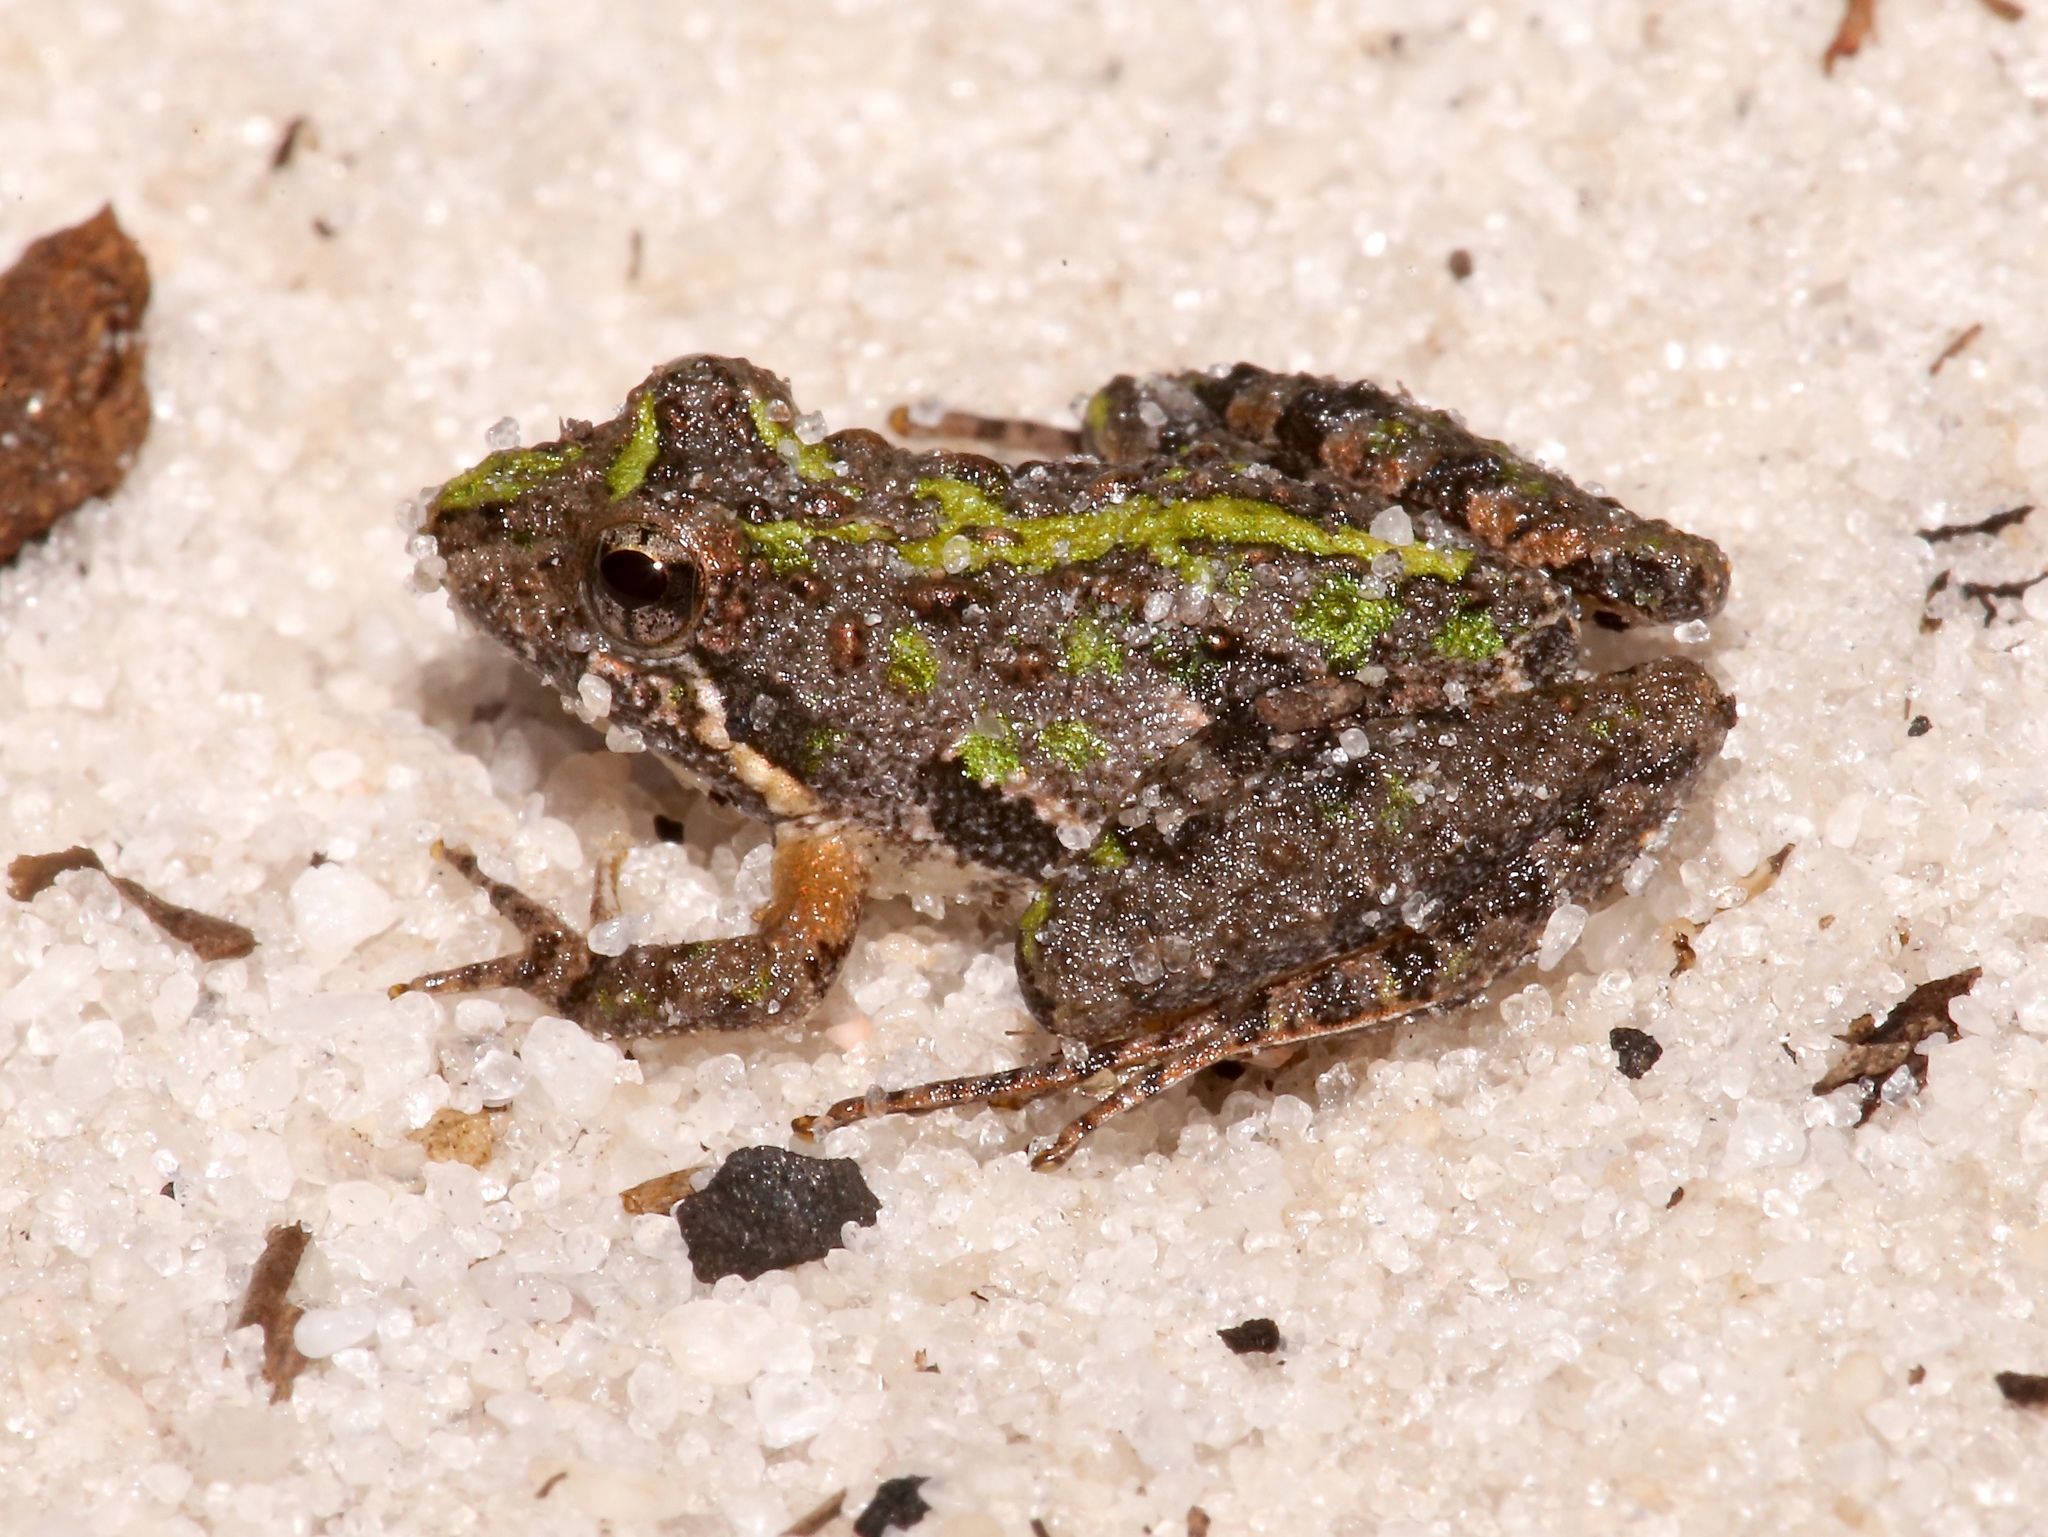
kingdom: Animalia
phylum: Chordata
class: Amphibia
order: Anura
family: Hylidae
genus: Acris
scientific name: Acris gryllus
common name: Southern cricket frog
